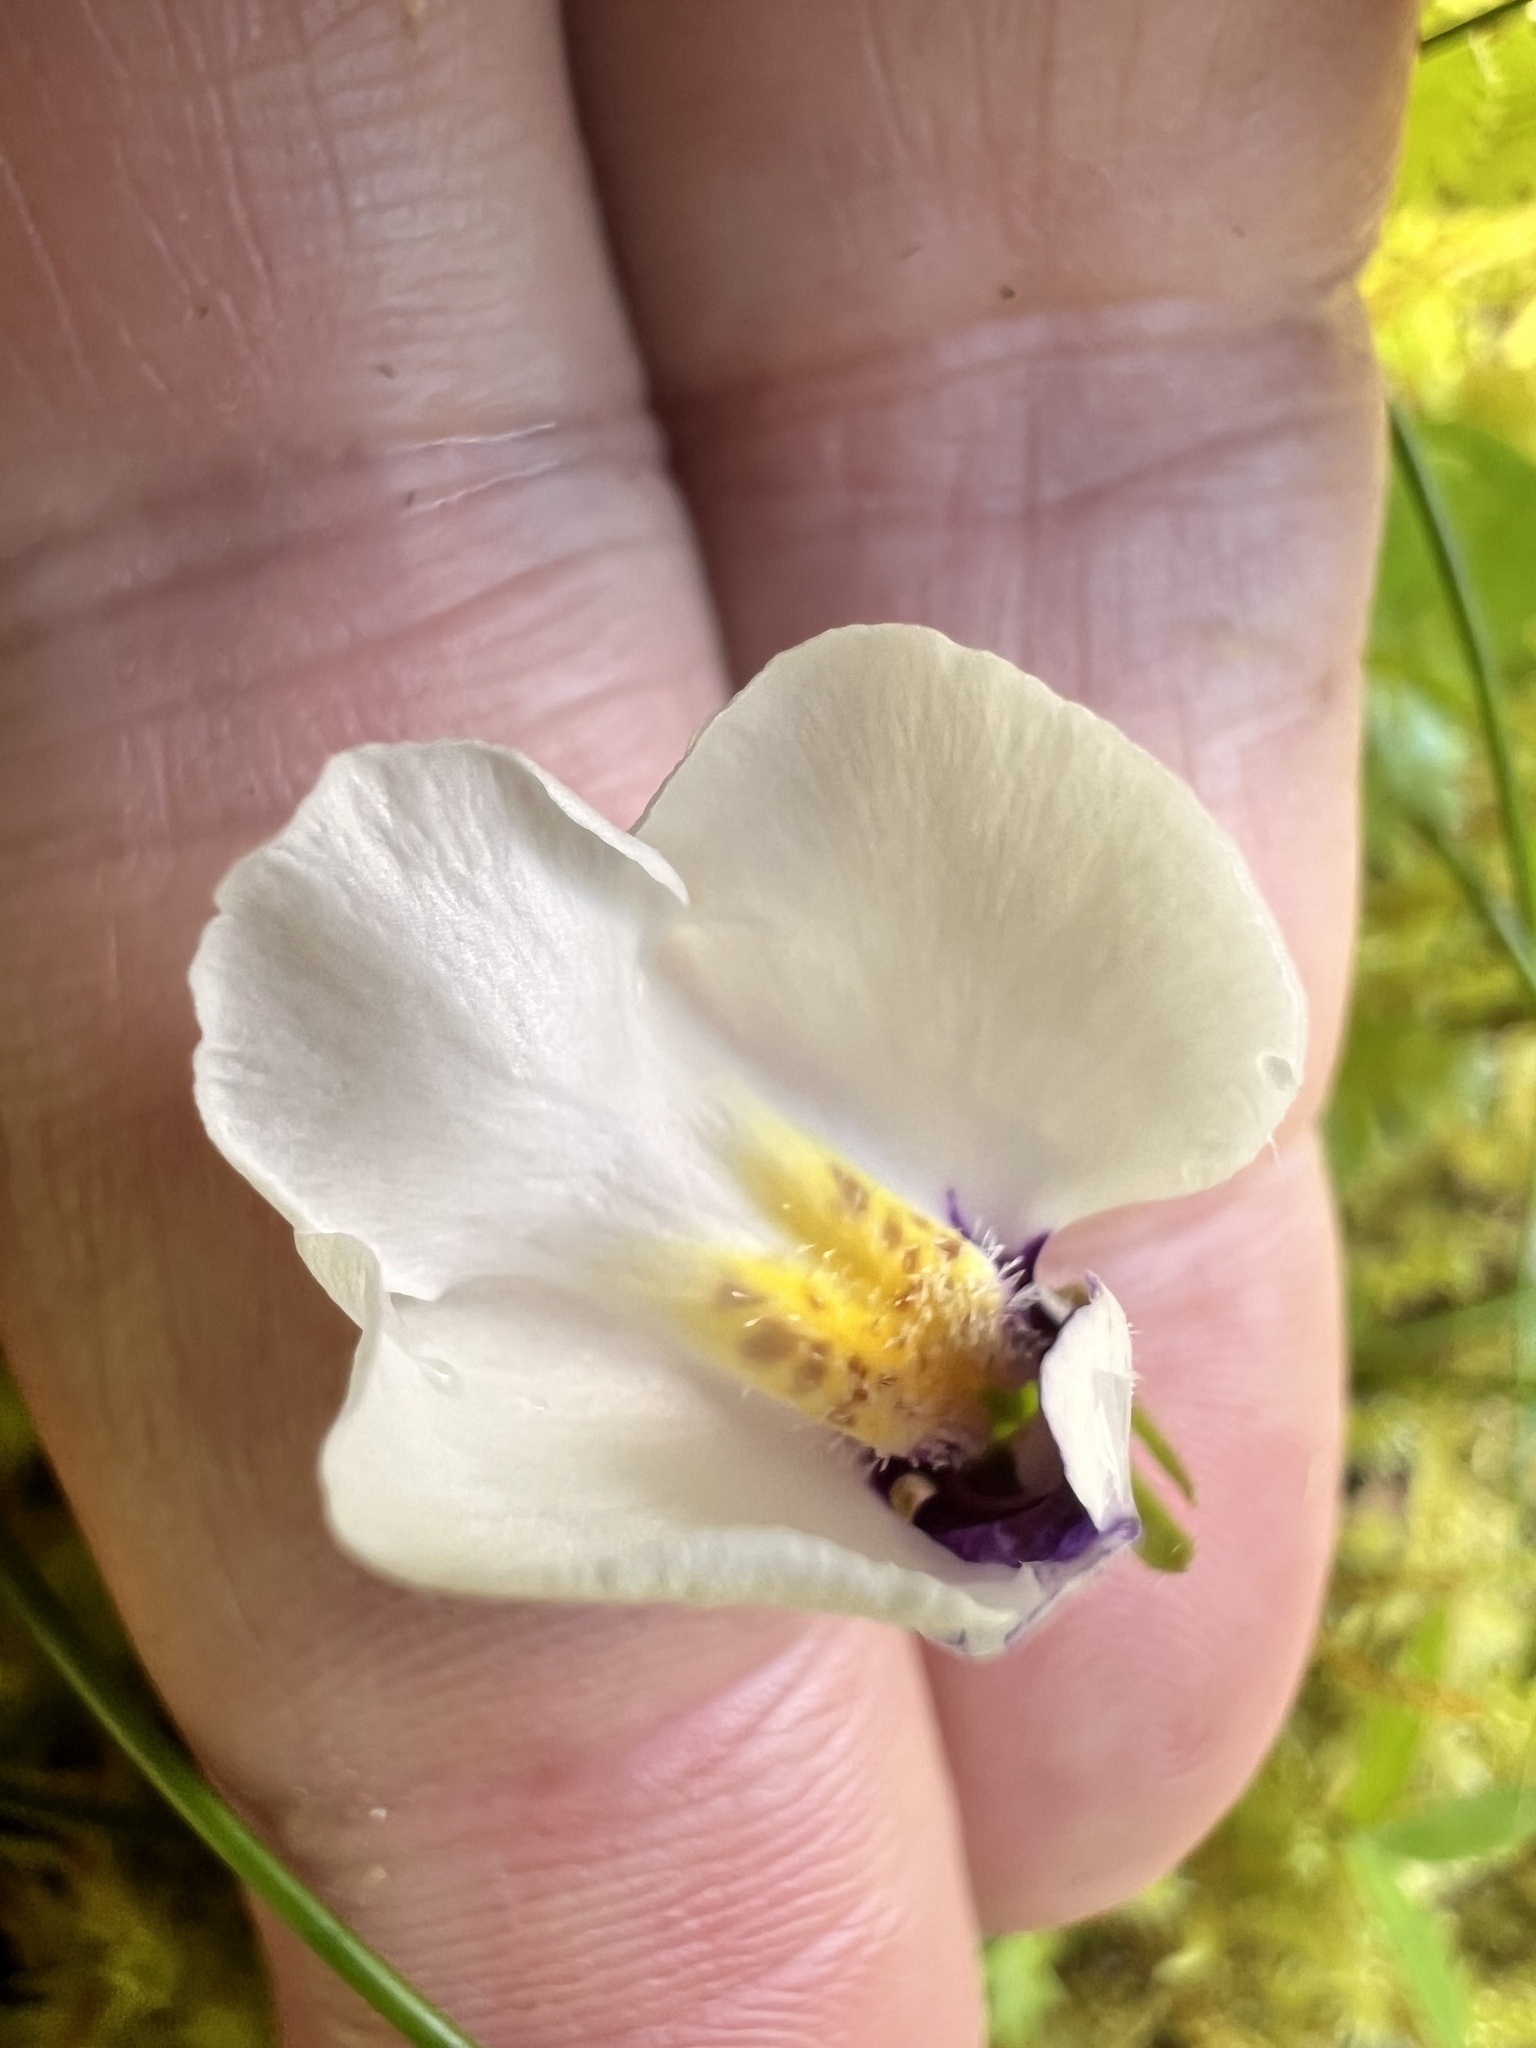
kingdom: Plantae
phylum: Tracheophyta
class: Magnoliopsida
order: Lamiales
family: Mazaceae
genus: Mazus
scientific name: Mazus radicans
